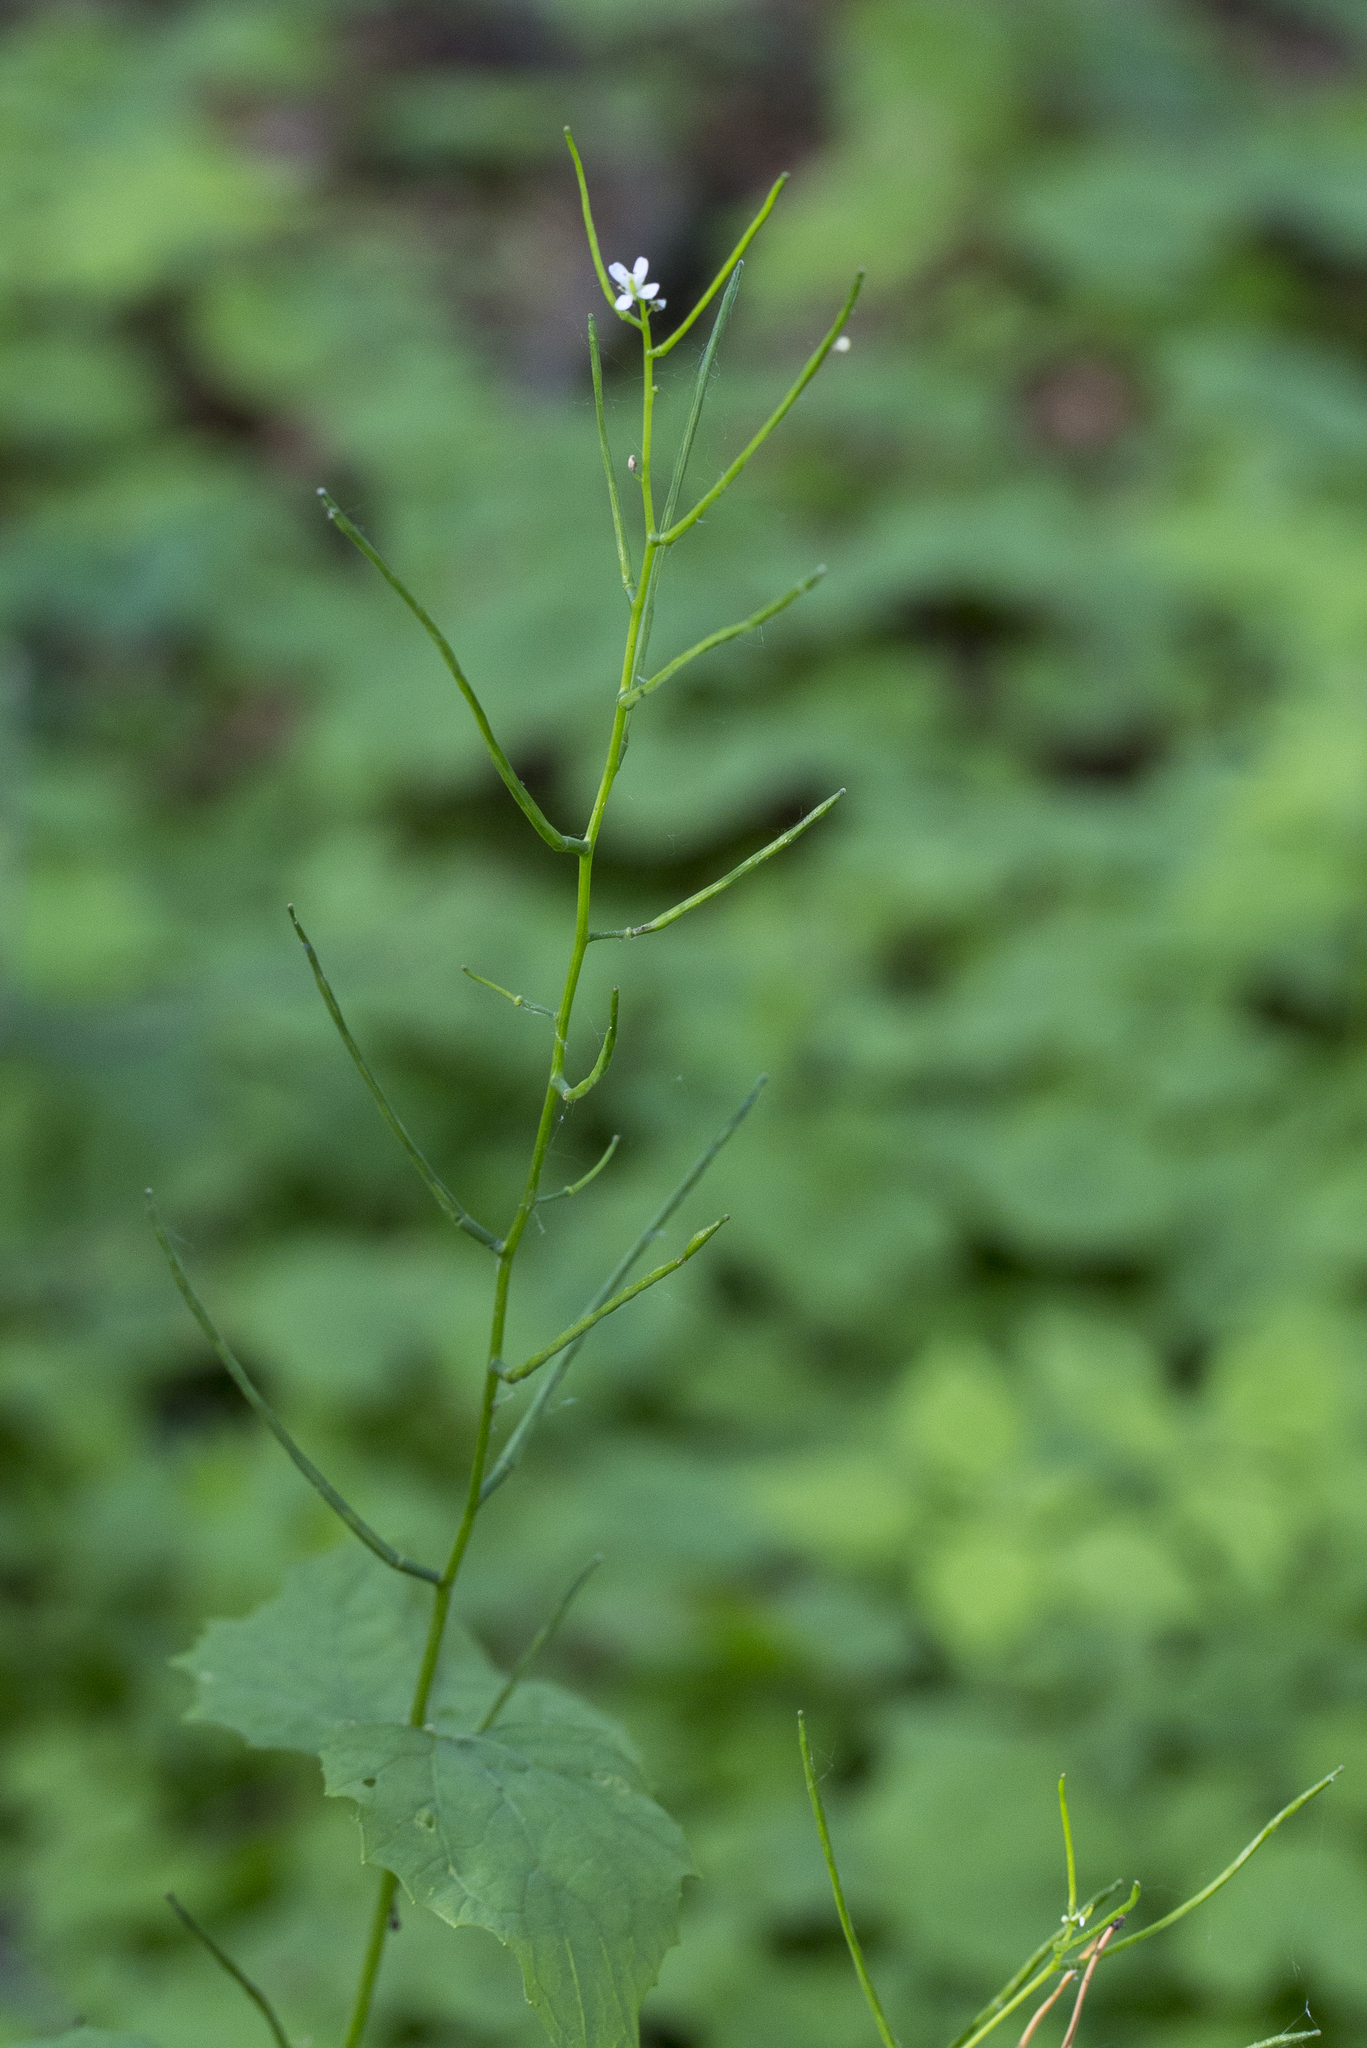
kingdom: Plantae
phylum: Tracheophyta
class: Magnoliopsida
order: Brassicales
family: Brassicaceae
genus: Alliaria
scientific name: Alliaria petiolata
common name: Garlic mustard
